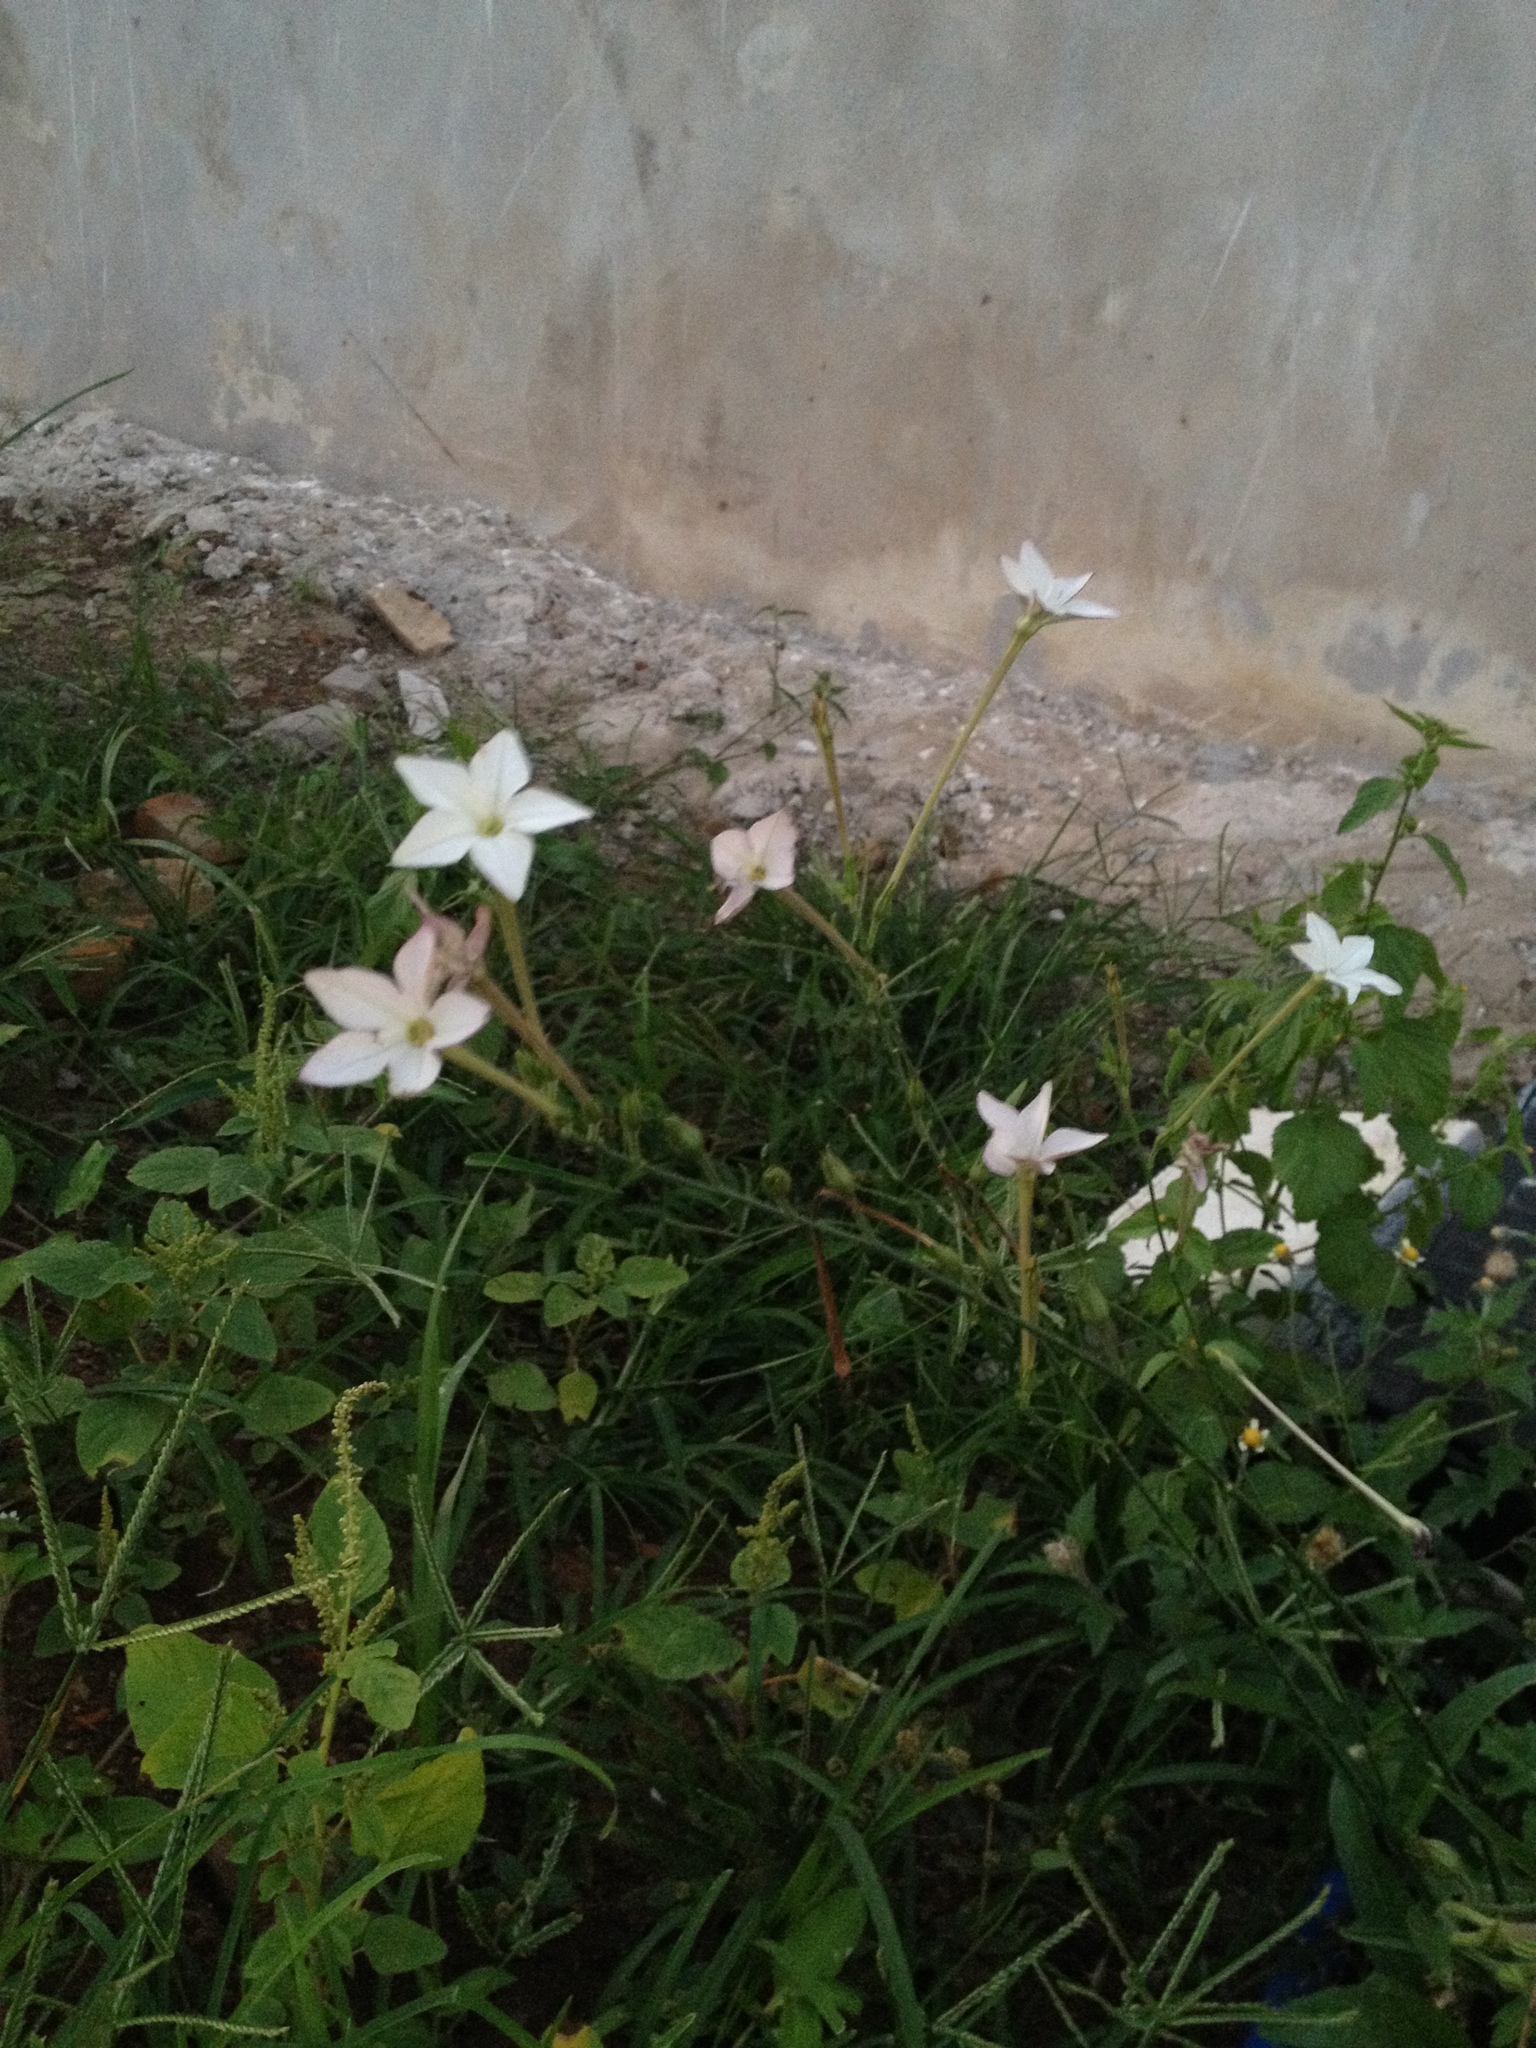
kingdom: Plantae
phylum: Tracheophyta
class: Magnoliopsida
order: Solanales
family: Solanaceae
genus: Nicotiana
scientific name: Nicotiana longiflora
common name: Long-flowered tobacco
